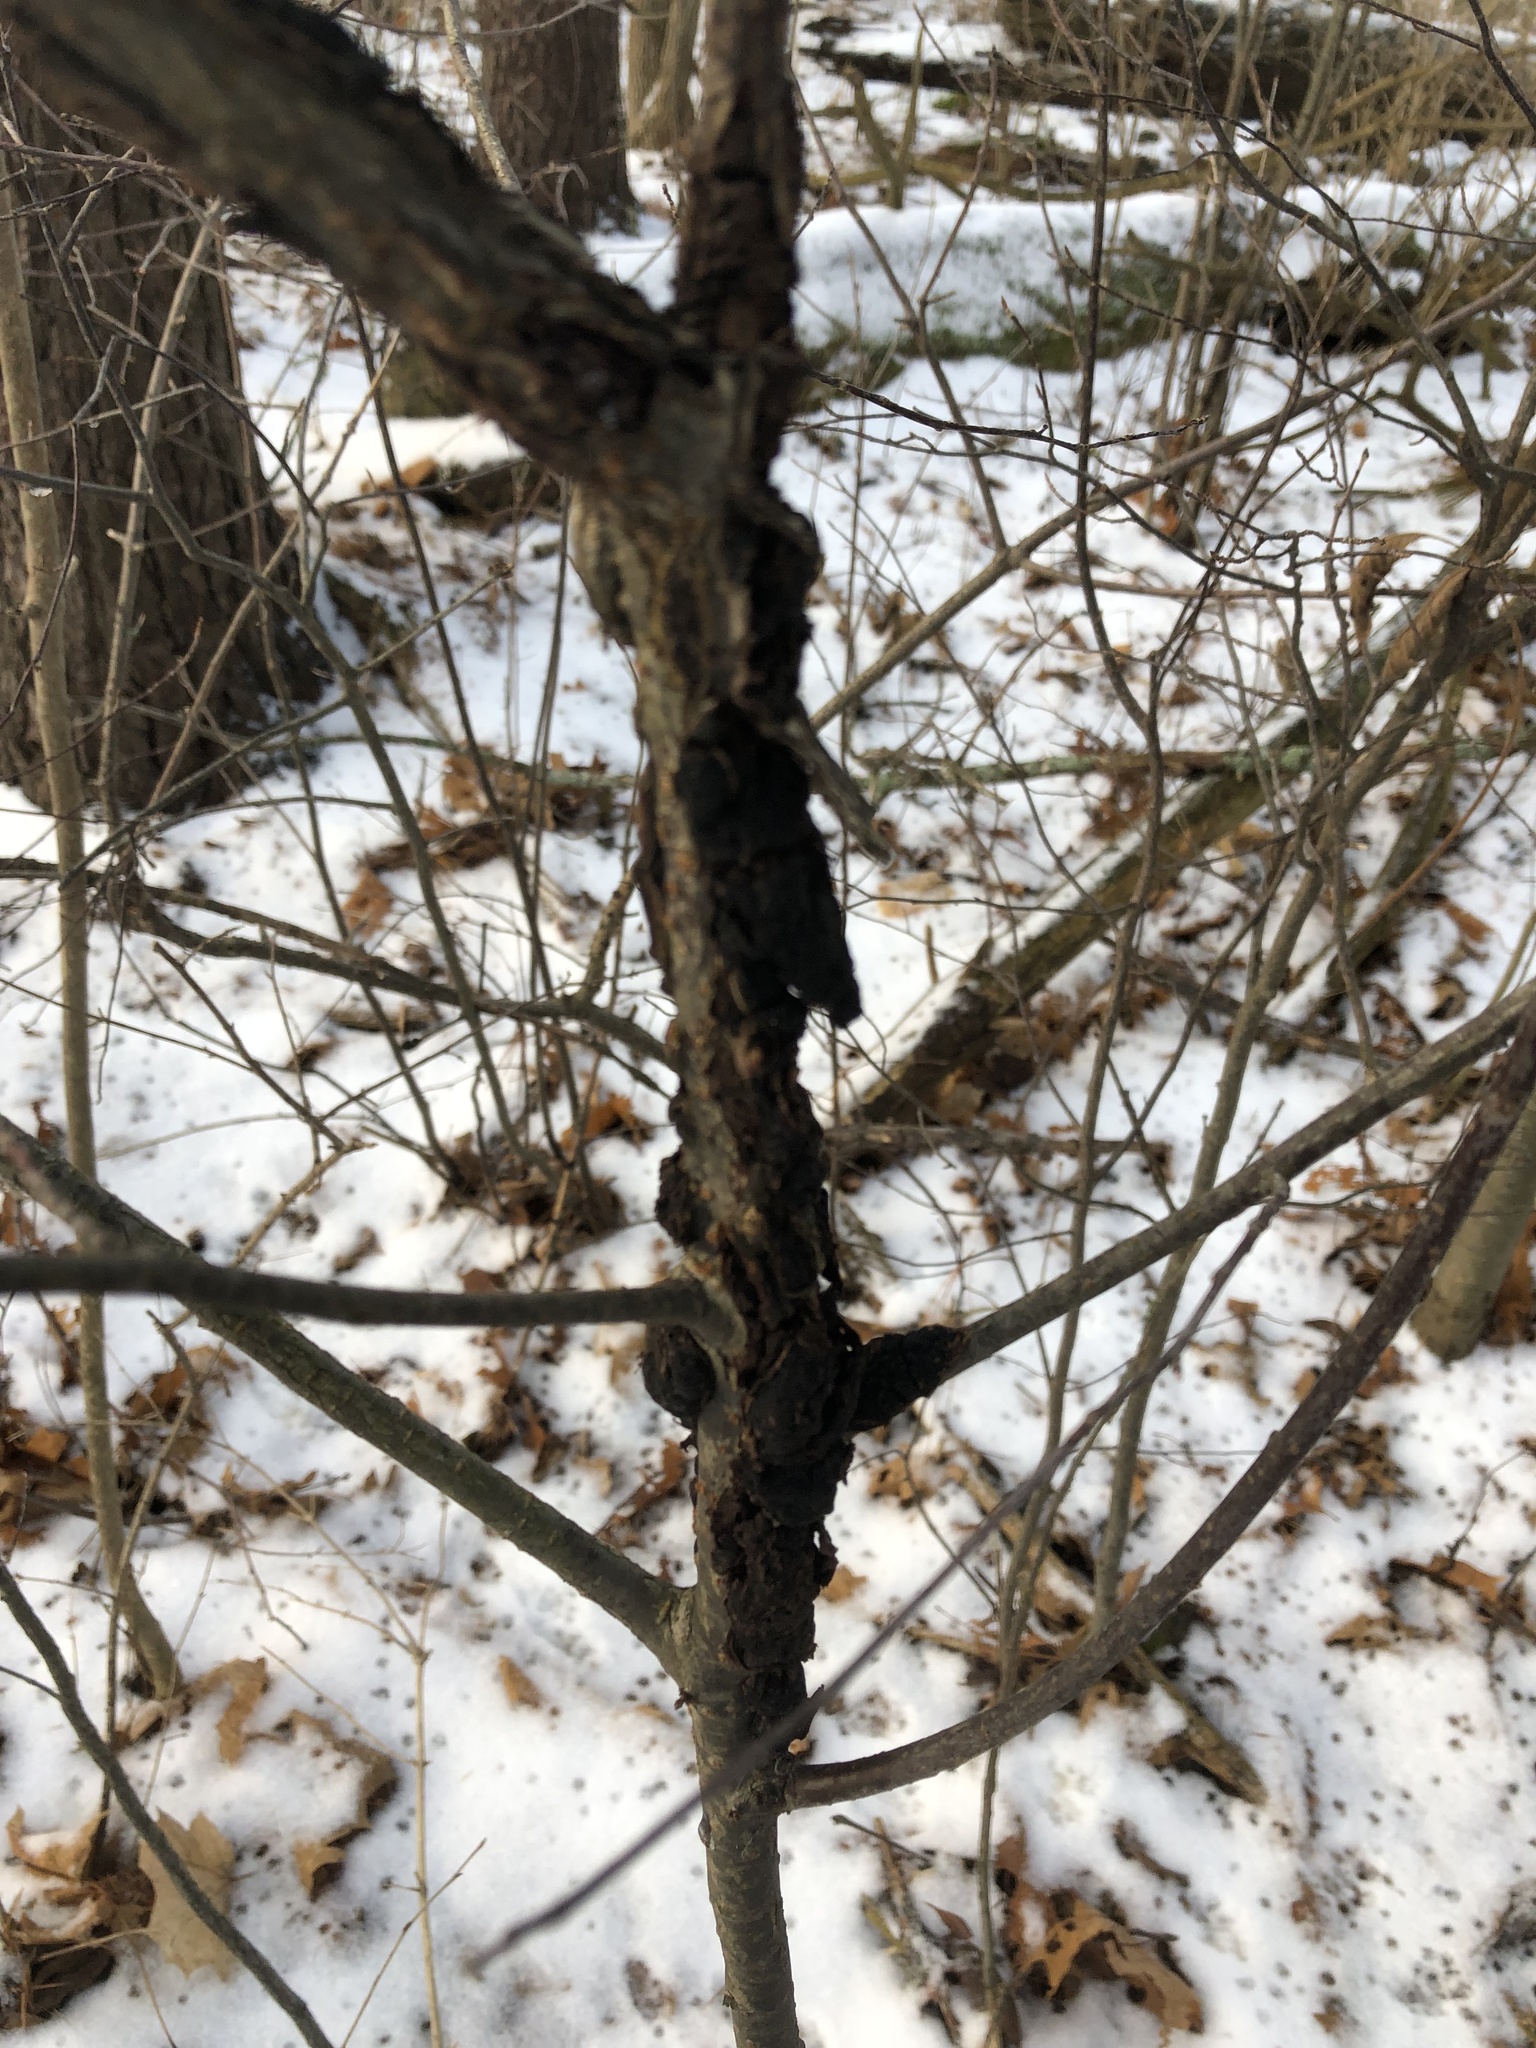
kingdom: Fungi
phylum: Ascomycota
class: Dothideomycetes
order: Venturiales
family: Venturiaceae
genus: Apiosporina
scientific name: Apiosporina morbosa
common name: Black knot
